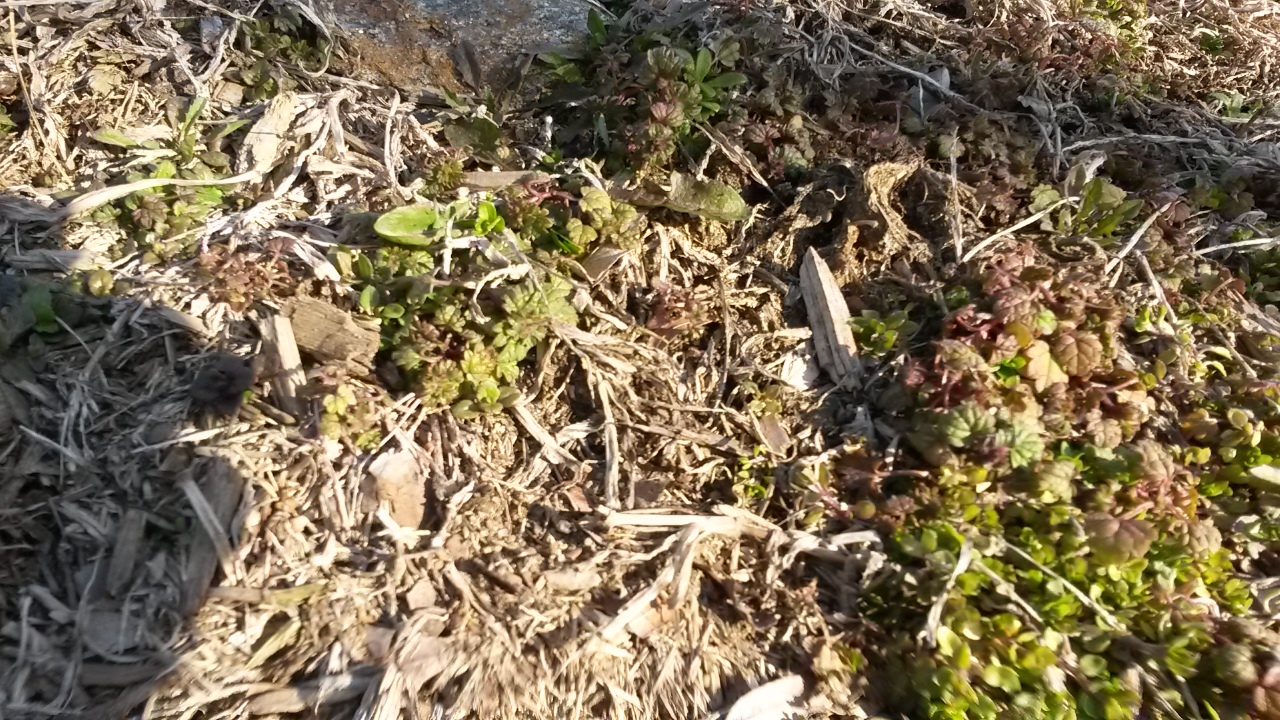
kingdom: Plantae
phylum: Tracheophyta
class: Magnoliopsida
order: Lamiales
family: Lamiaceae
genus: Lamium
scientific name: Lamium amplexicaule
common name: Henbit dead-nettle
